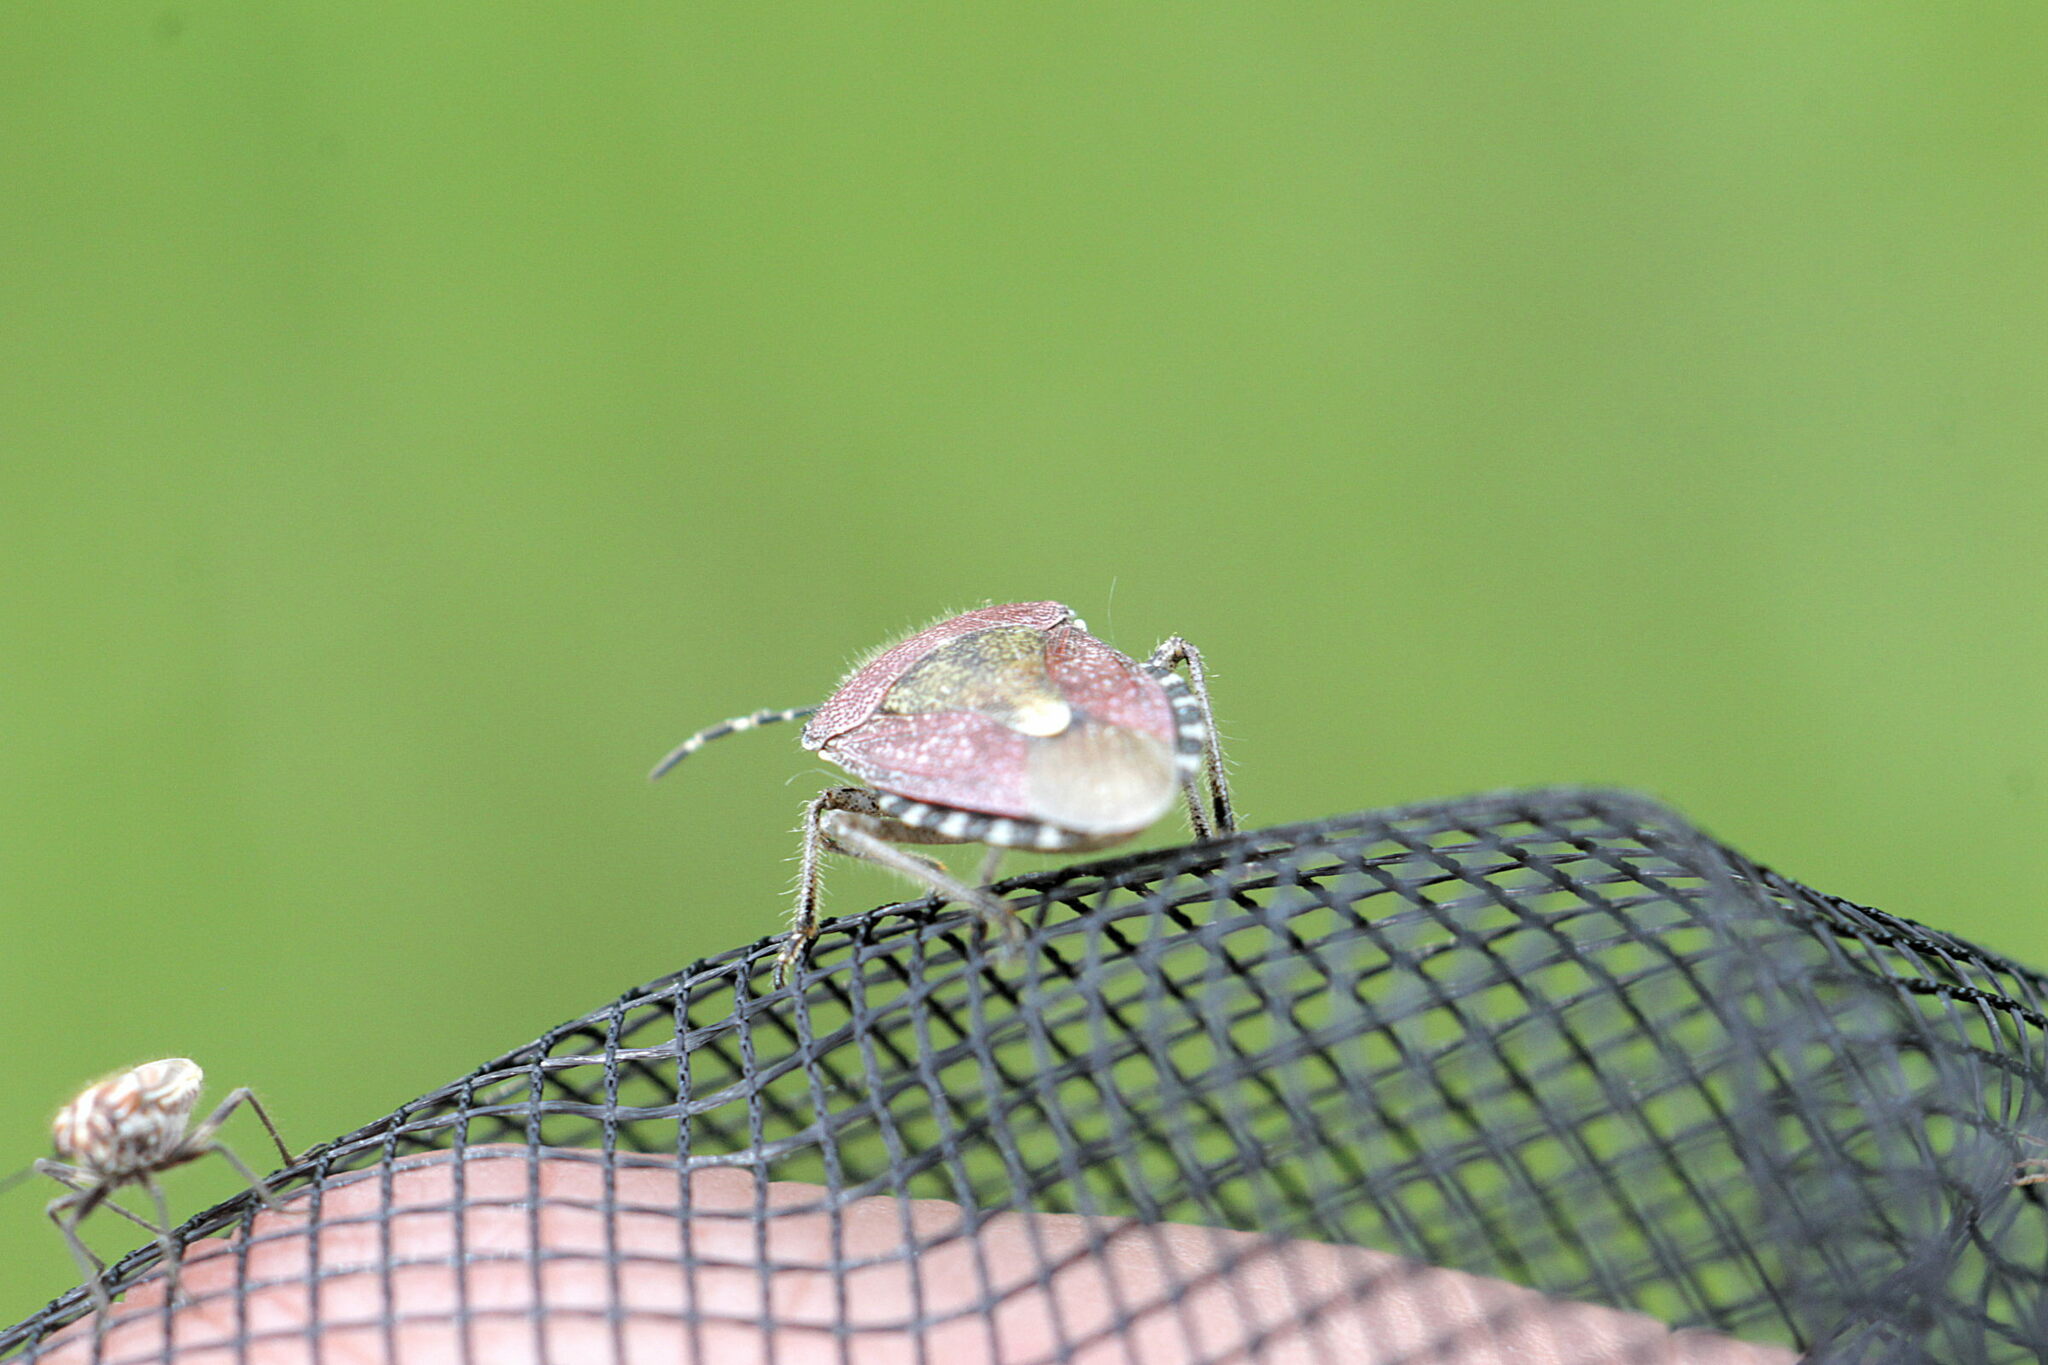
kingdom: Animalia
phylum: Arthropoda
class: Insecta
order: Hemiptera
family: Pentatomidae
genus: Dolycoris
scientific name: Dolycoris baccarum
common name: Sloe bug
